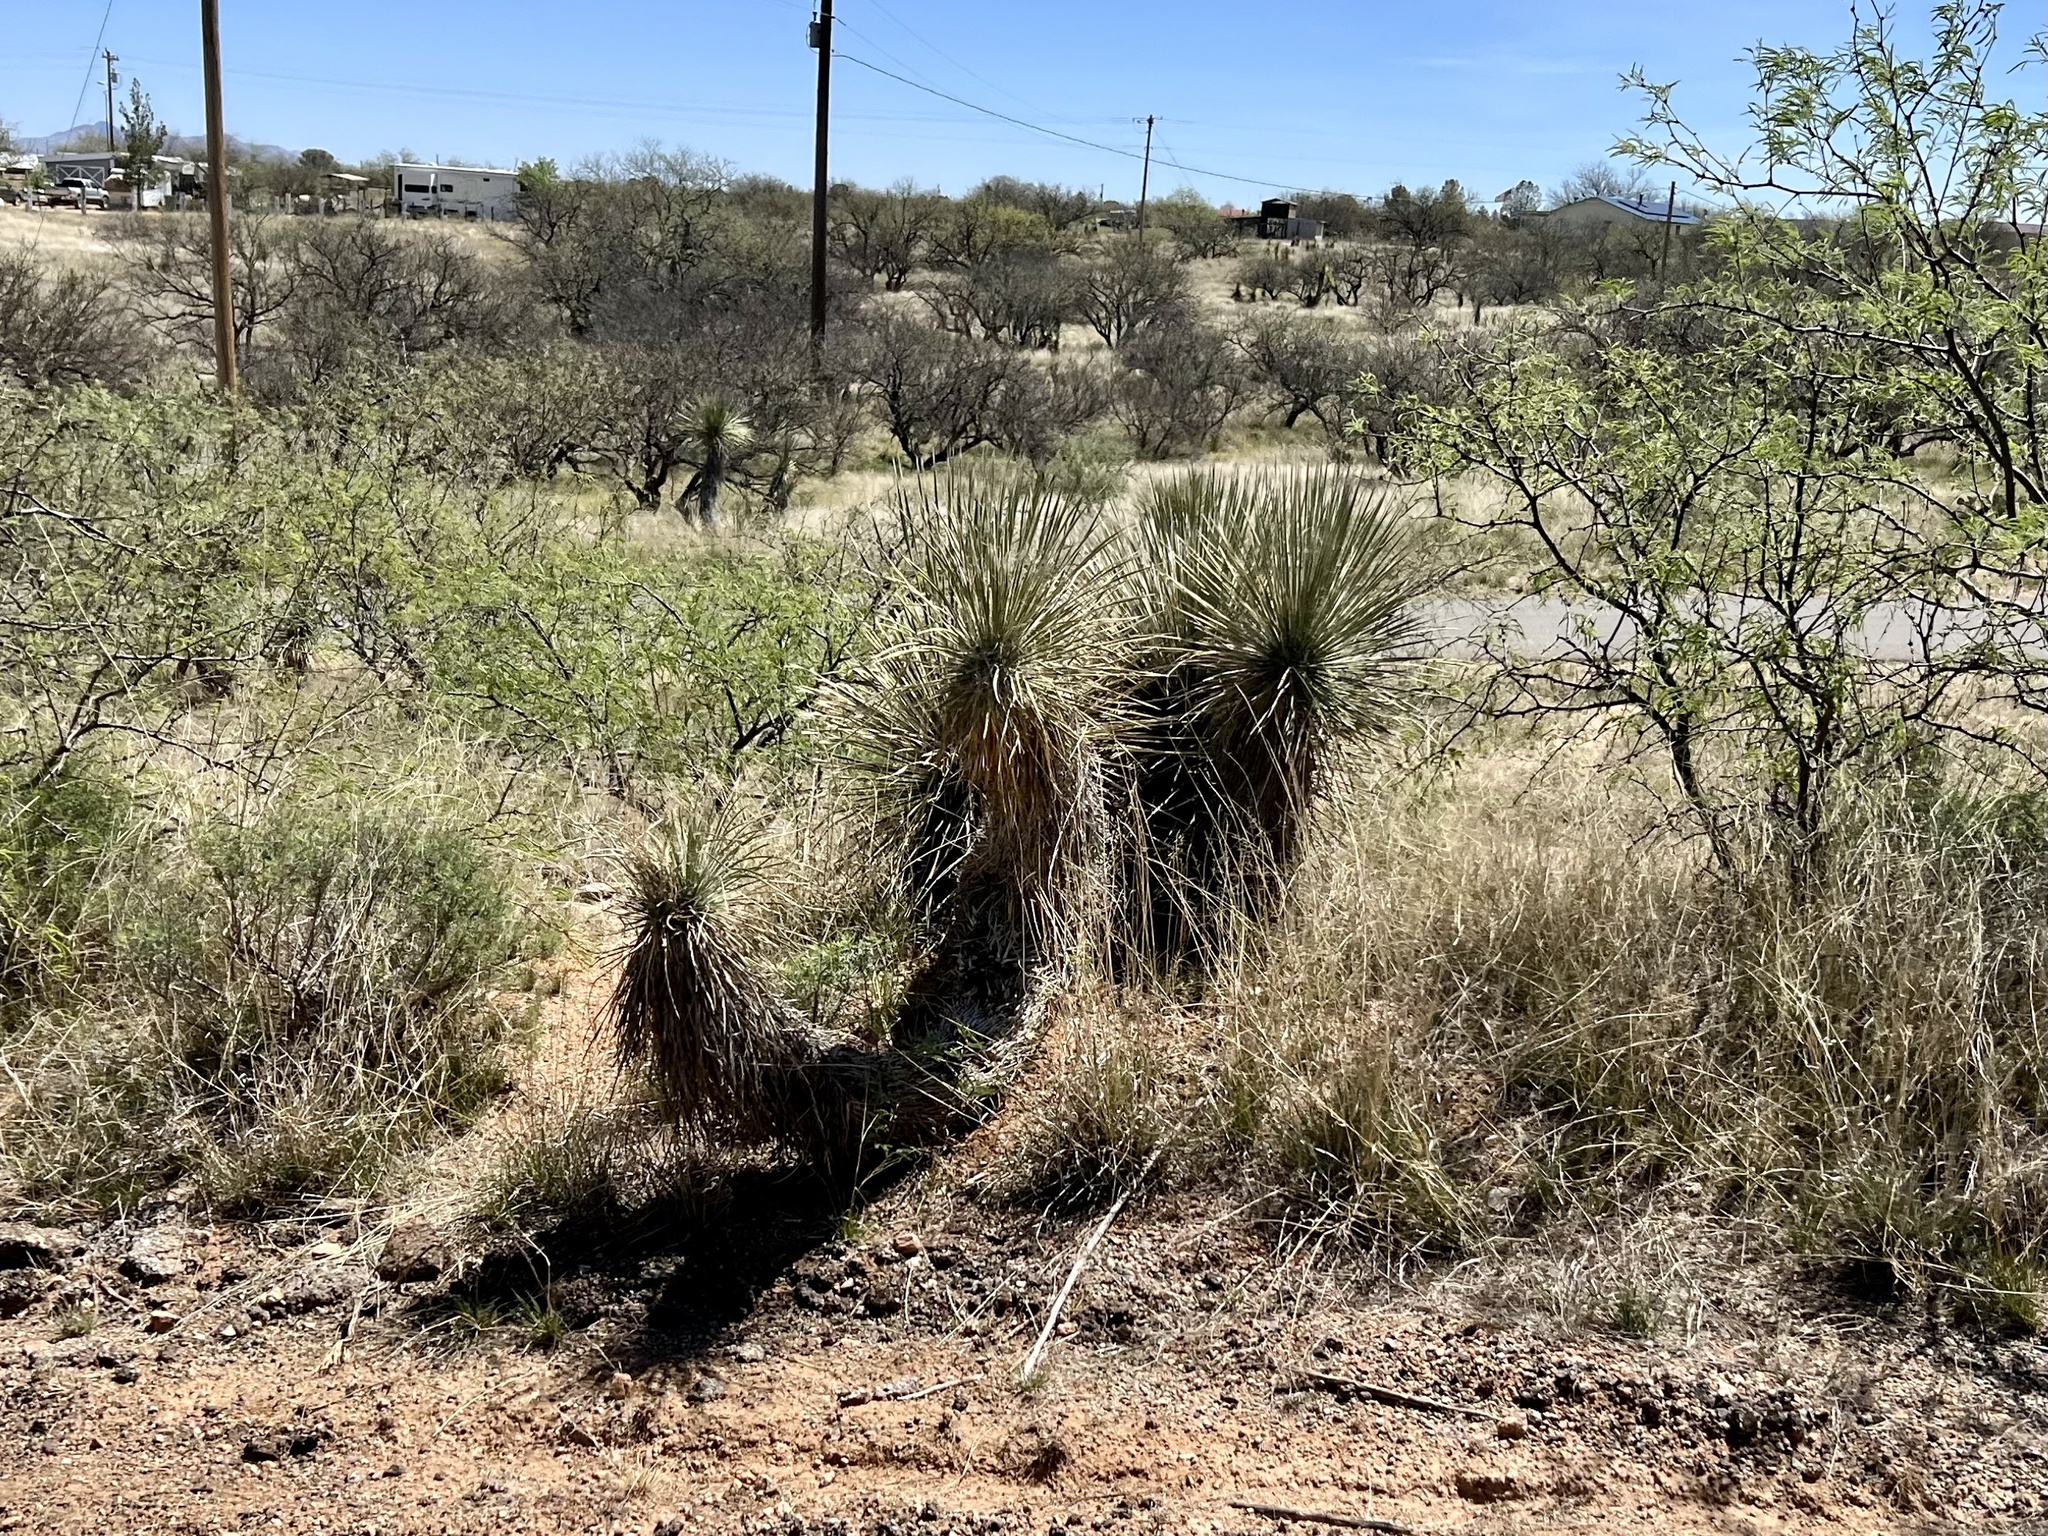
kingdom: Plantae
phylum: Tracheophyta
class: Liliopsida
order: Asparagales
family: Asparagaceae
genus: Yucca
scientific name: Yucca elata
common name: Palmella
